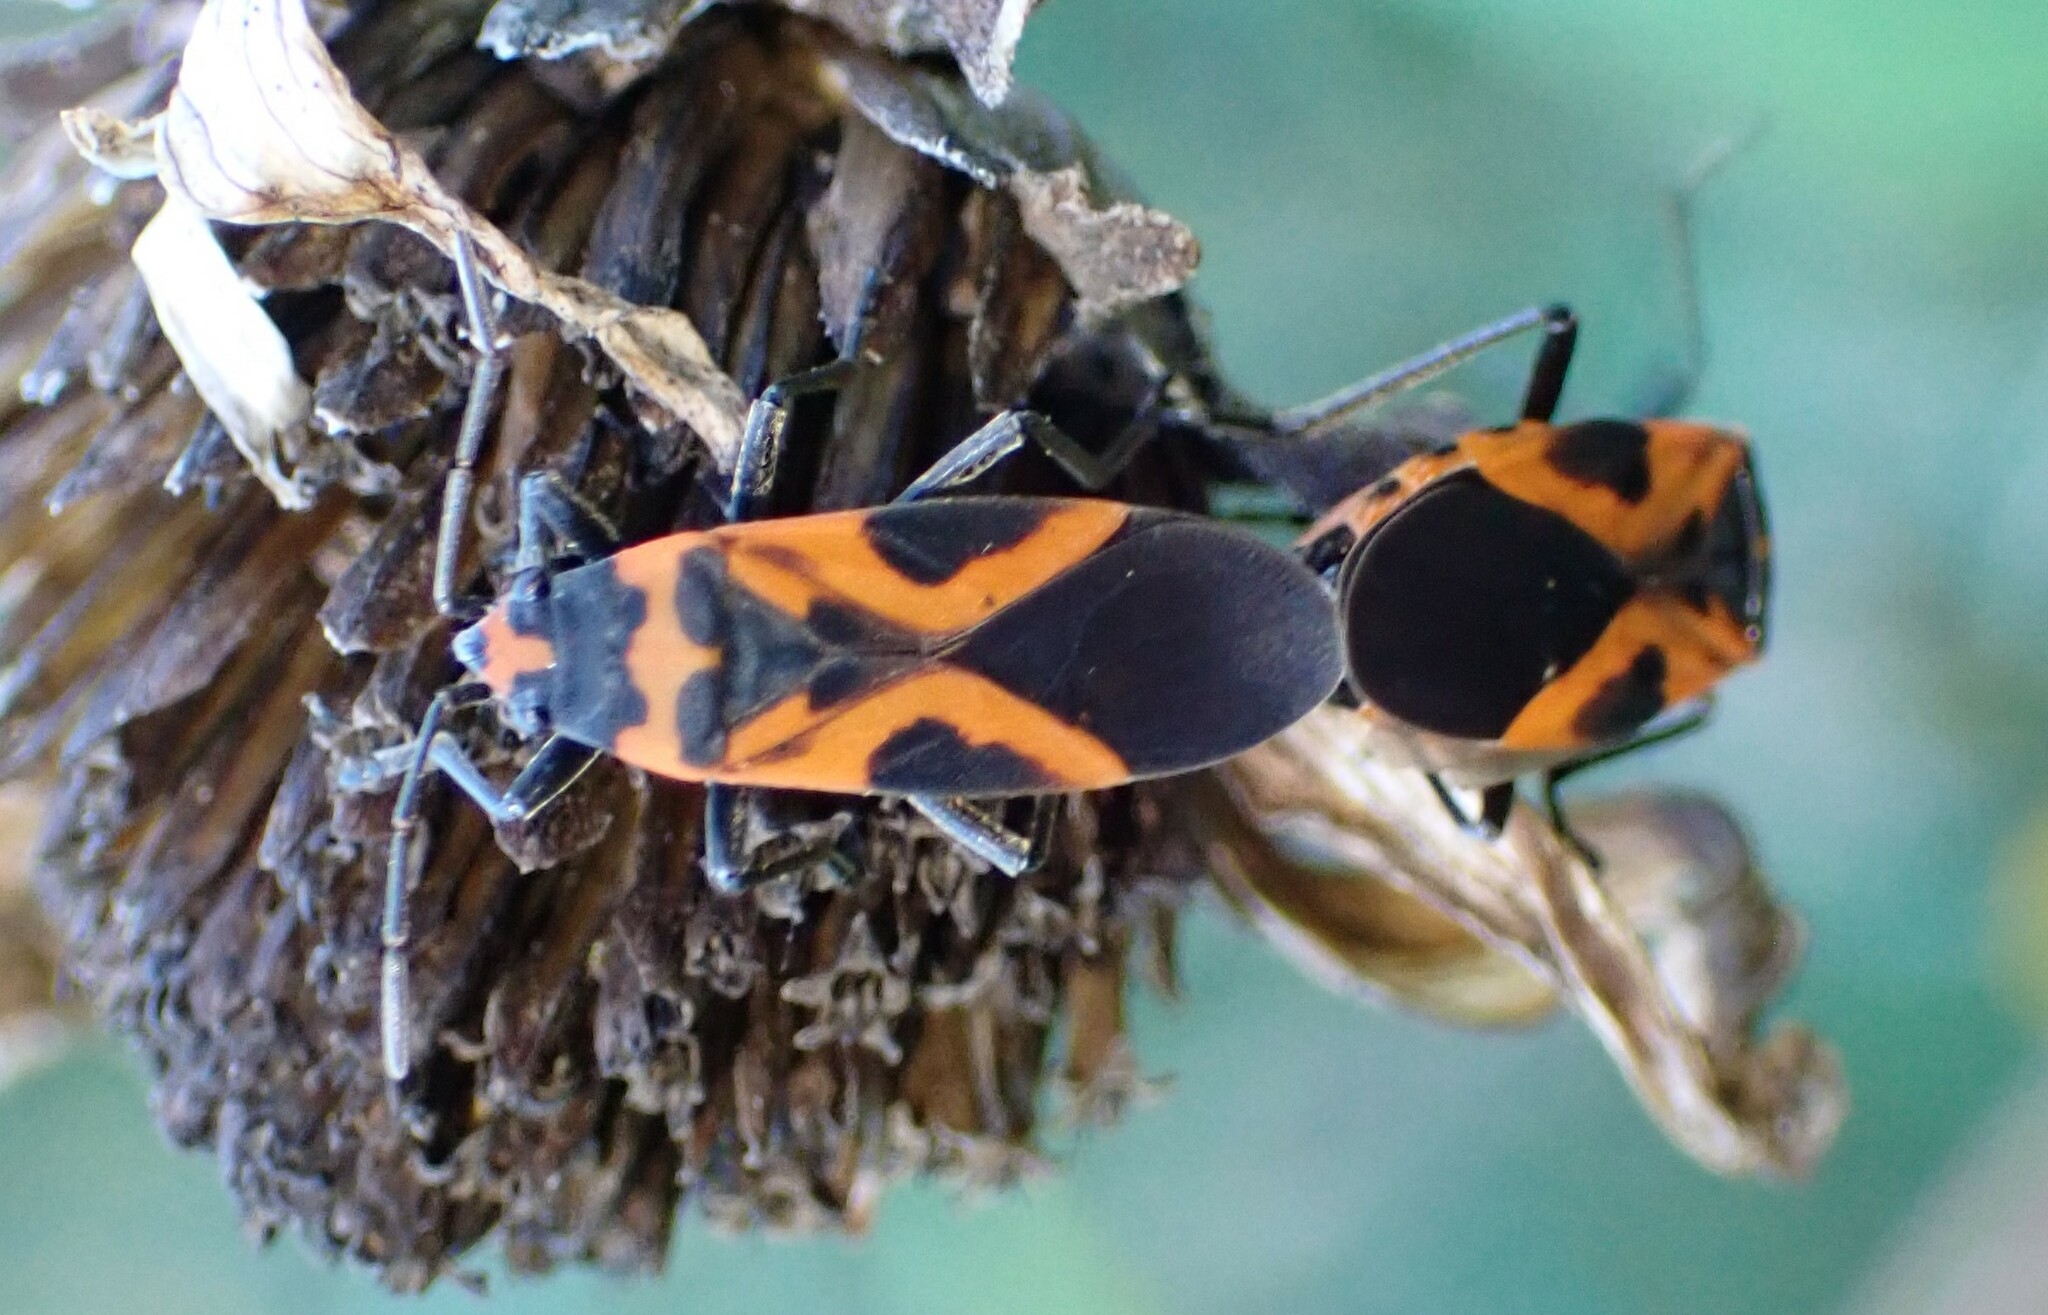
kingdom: Animalia
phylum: Arthropoda
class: Insecta
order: Hemiptera
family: Lygaeidae
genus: Lygaeus
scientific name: Lygaeus turcicus
